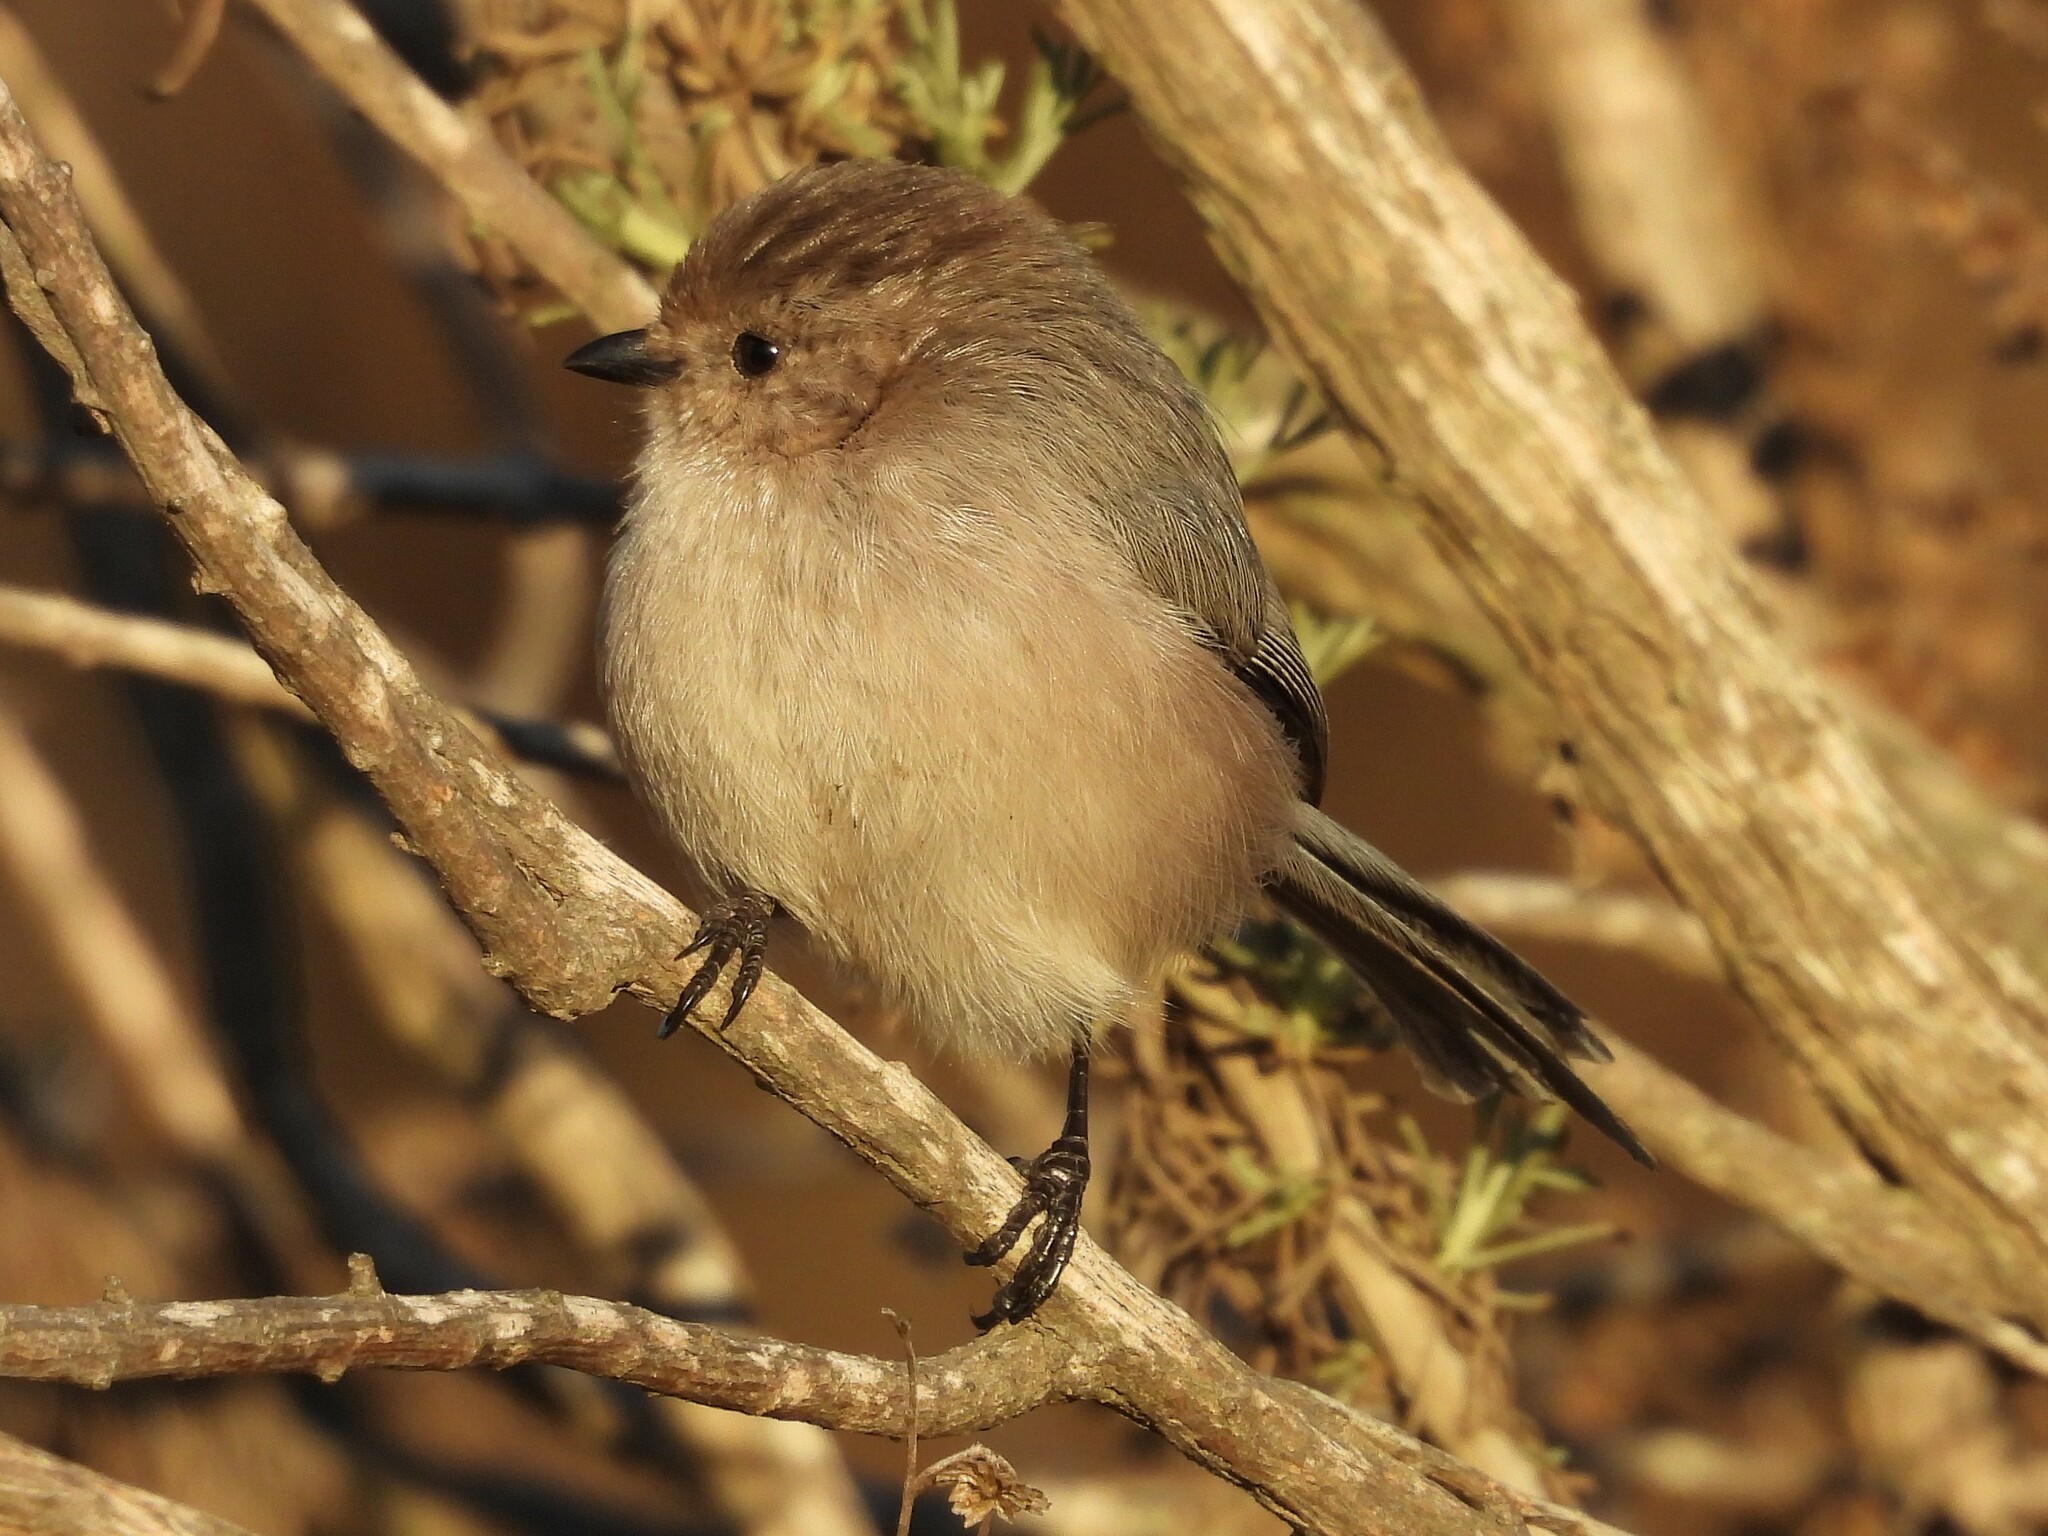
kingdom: Animalia
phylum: Chordata
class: Aves
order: Passeriformes
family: Aegithalidae
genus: Psaltriparus
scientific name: Psaltriparus minimus
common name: American bushtit
